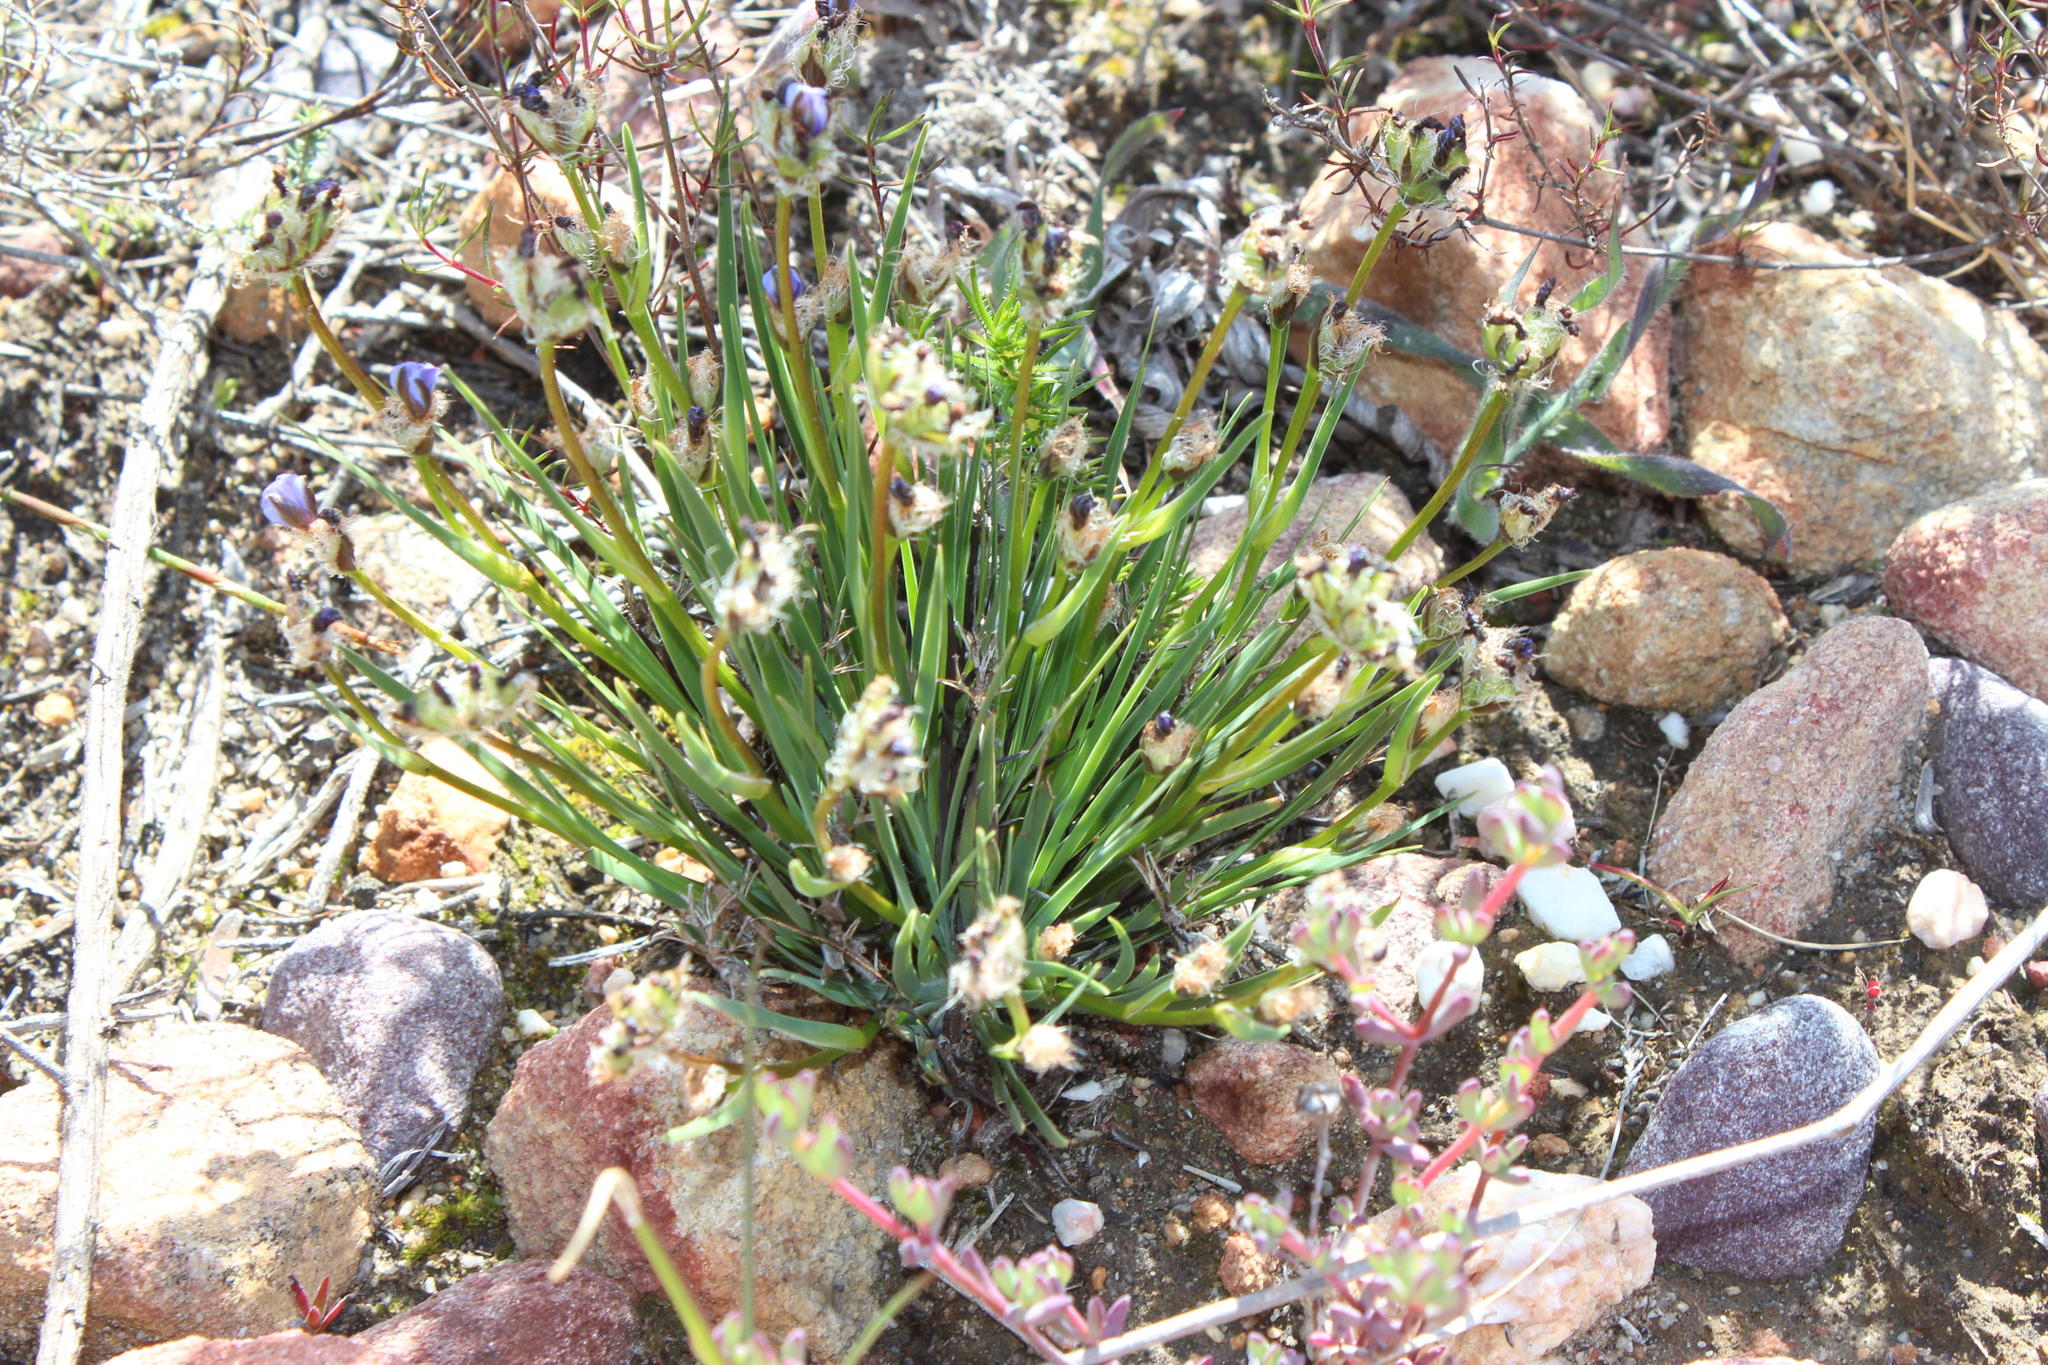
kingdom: Plantae
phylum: Tracheophyta
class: Liliopsida
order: Asparagales
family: Iridaceae
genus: Aristea
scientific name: Aristea africana
